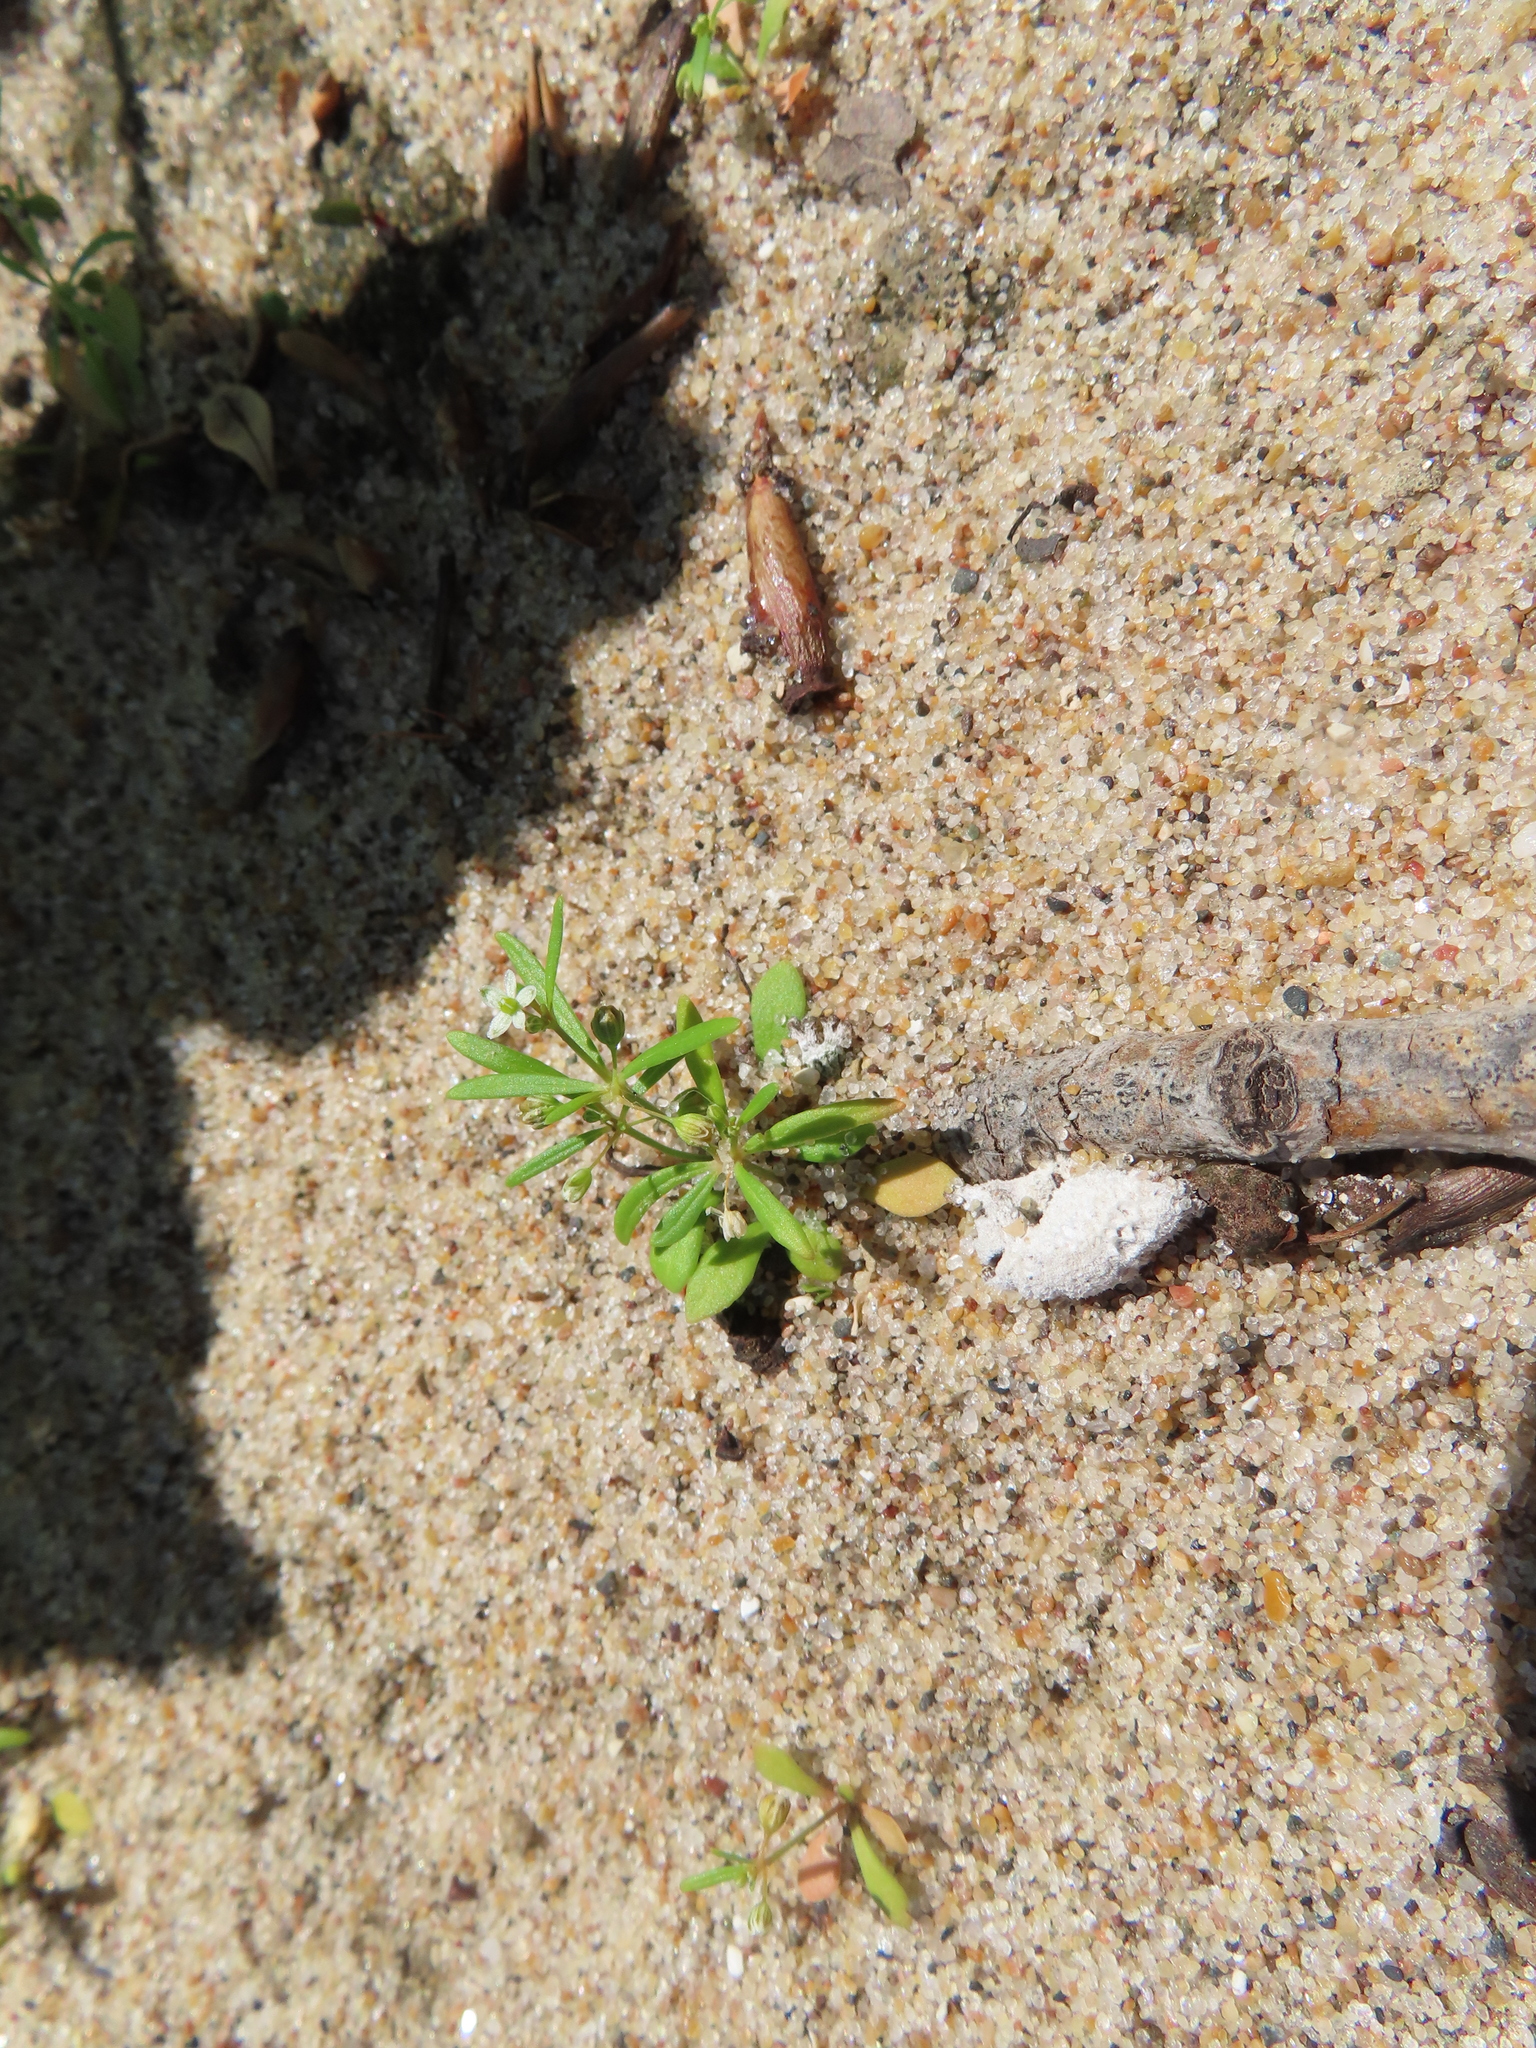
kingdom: Plantae
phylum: Tracheophyta
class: Magnoliopsida
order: Caryophyllales
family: Molluginaceae
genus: Mollugo
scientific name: Mollugo verticillata
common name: Green carpetweed
